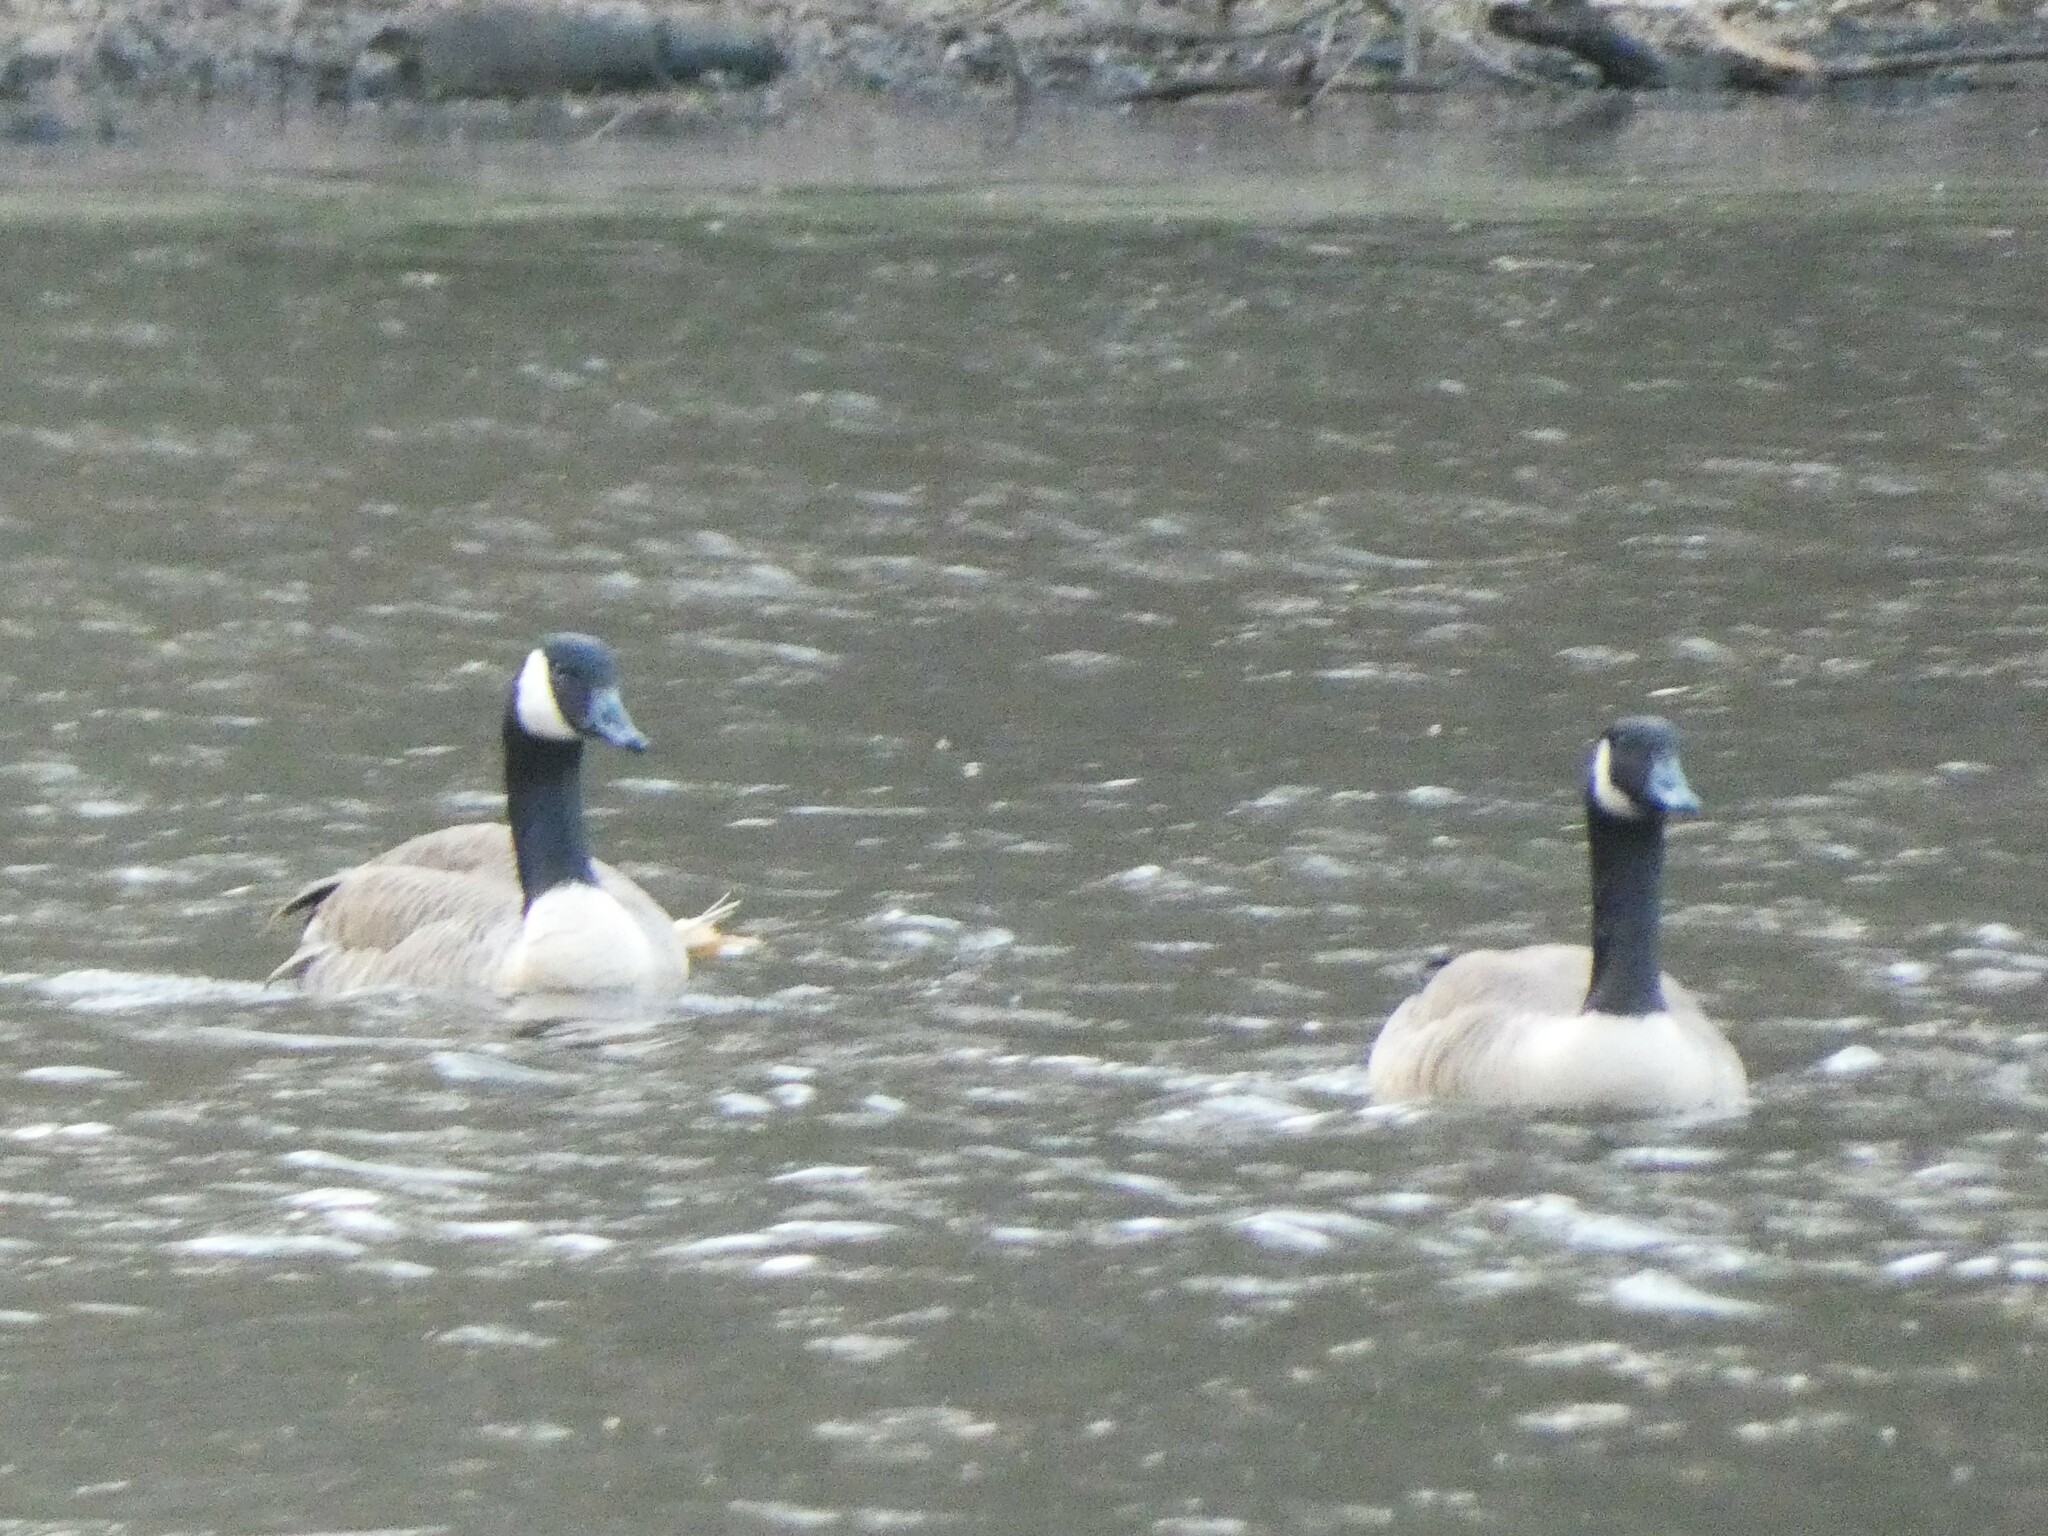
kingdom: Animalia
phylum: Chordata
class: Aves
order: Anseriformes
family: Anatidae
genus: Branta
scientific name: Branta canadensis
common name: Canada goose
